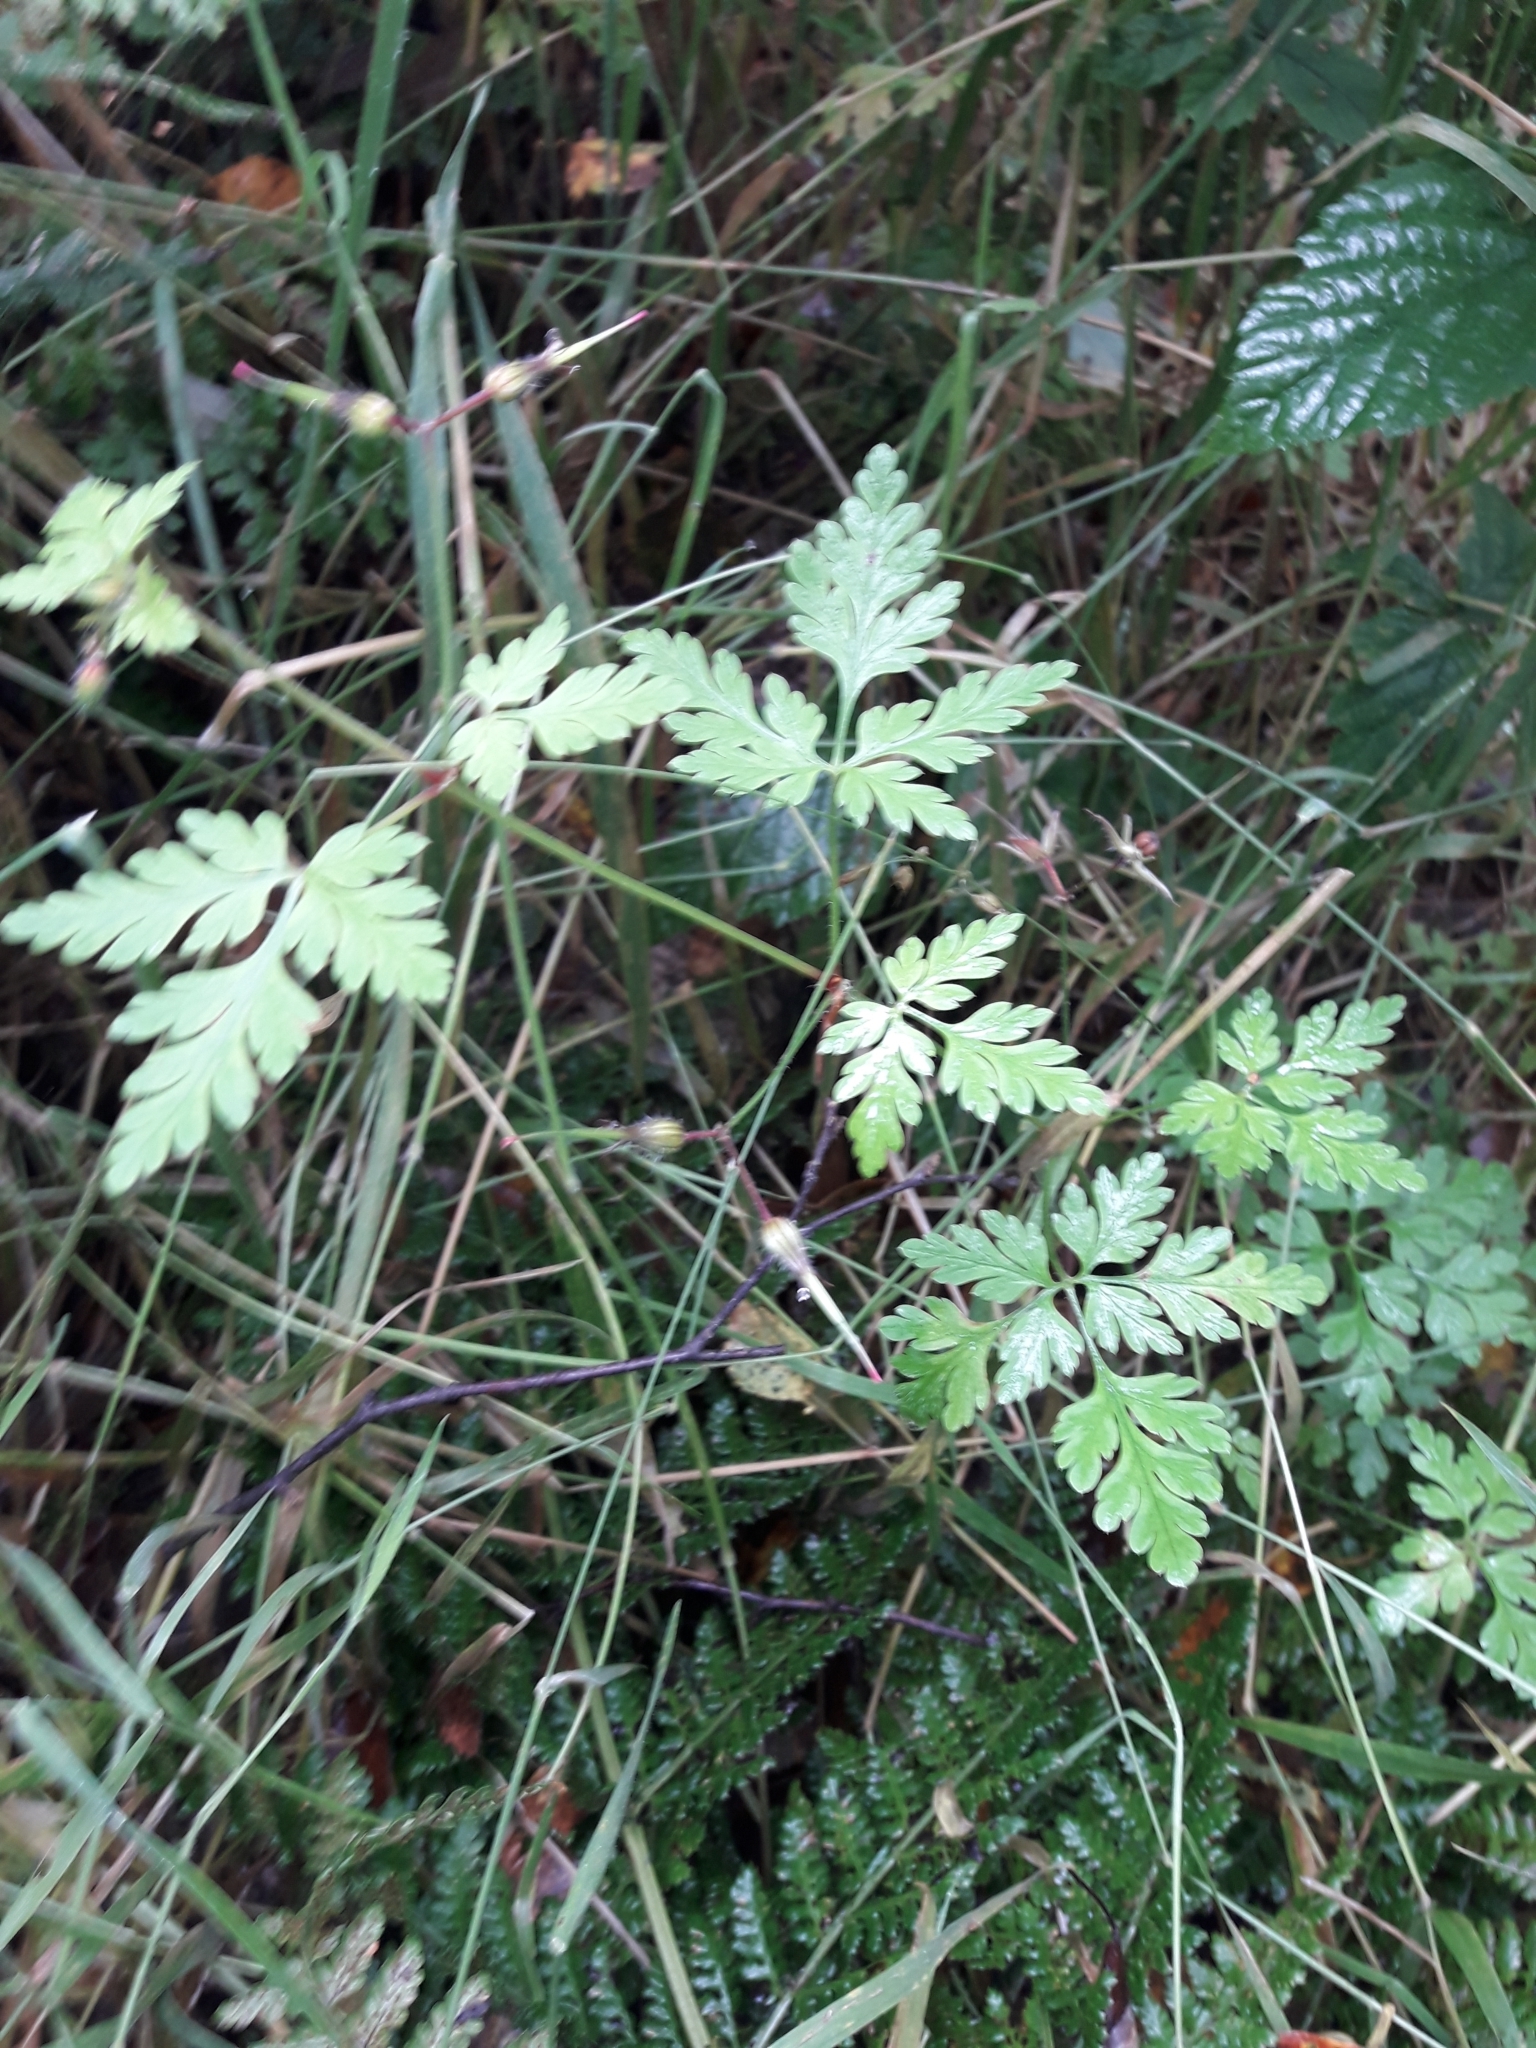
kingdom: Plantae
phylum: Tracheophyta
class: Magnoliopsida
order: Geraniales
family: Geraniaceae
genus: Geranium
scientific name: Geranium robertianum
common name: Herb-robert
